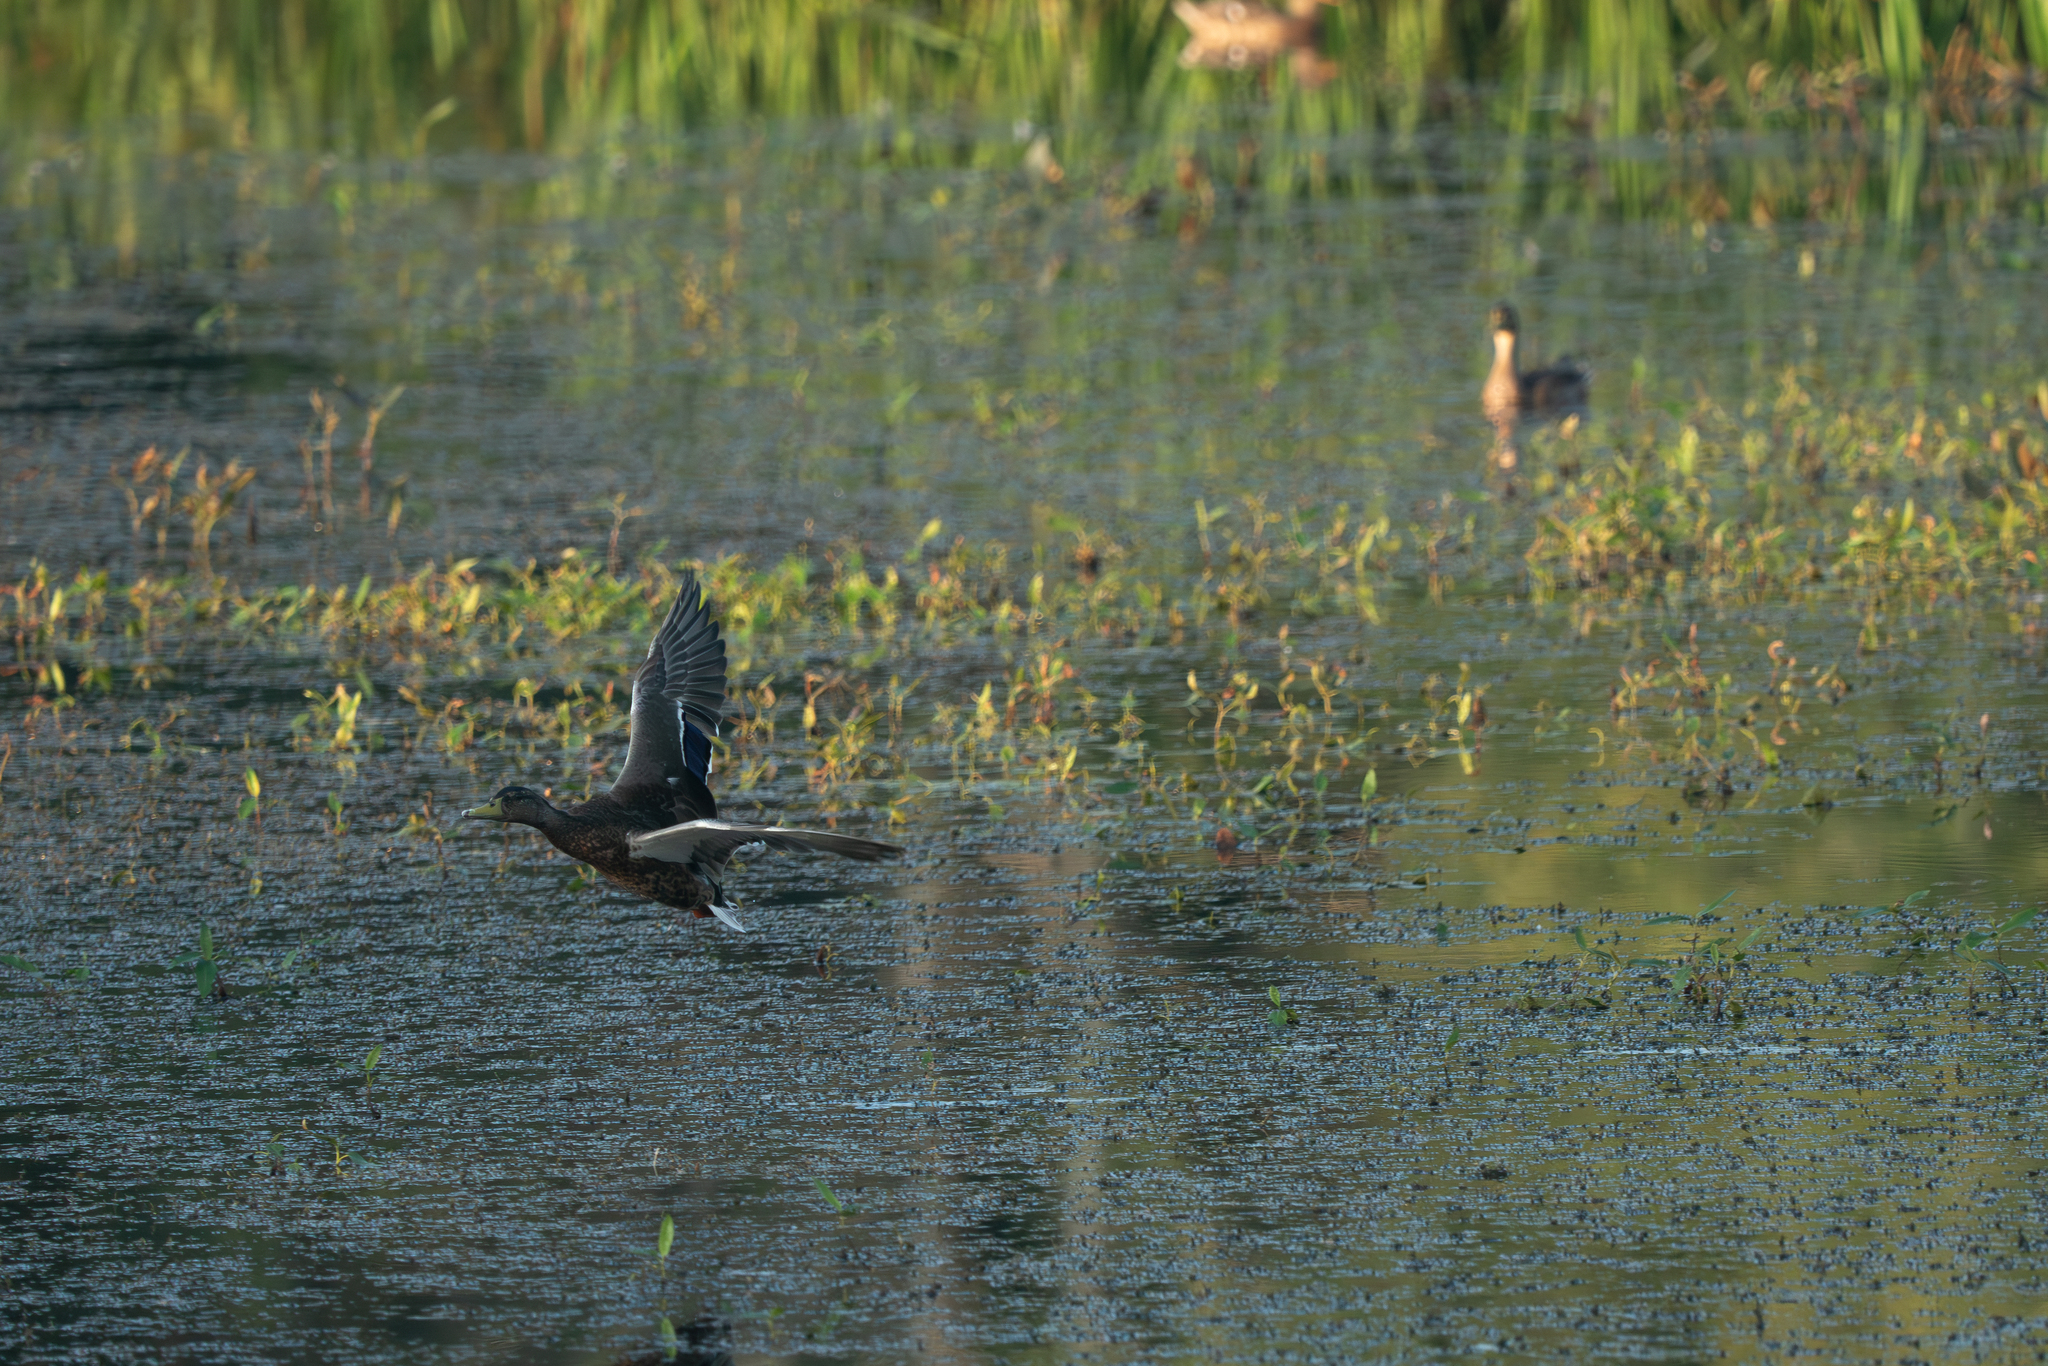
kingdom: Animalia
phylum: Chordata
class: Aves
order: Anseriformes
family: Anatidae
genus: Anas
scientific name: Anas platyrhynchos
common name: Mallard
